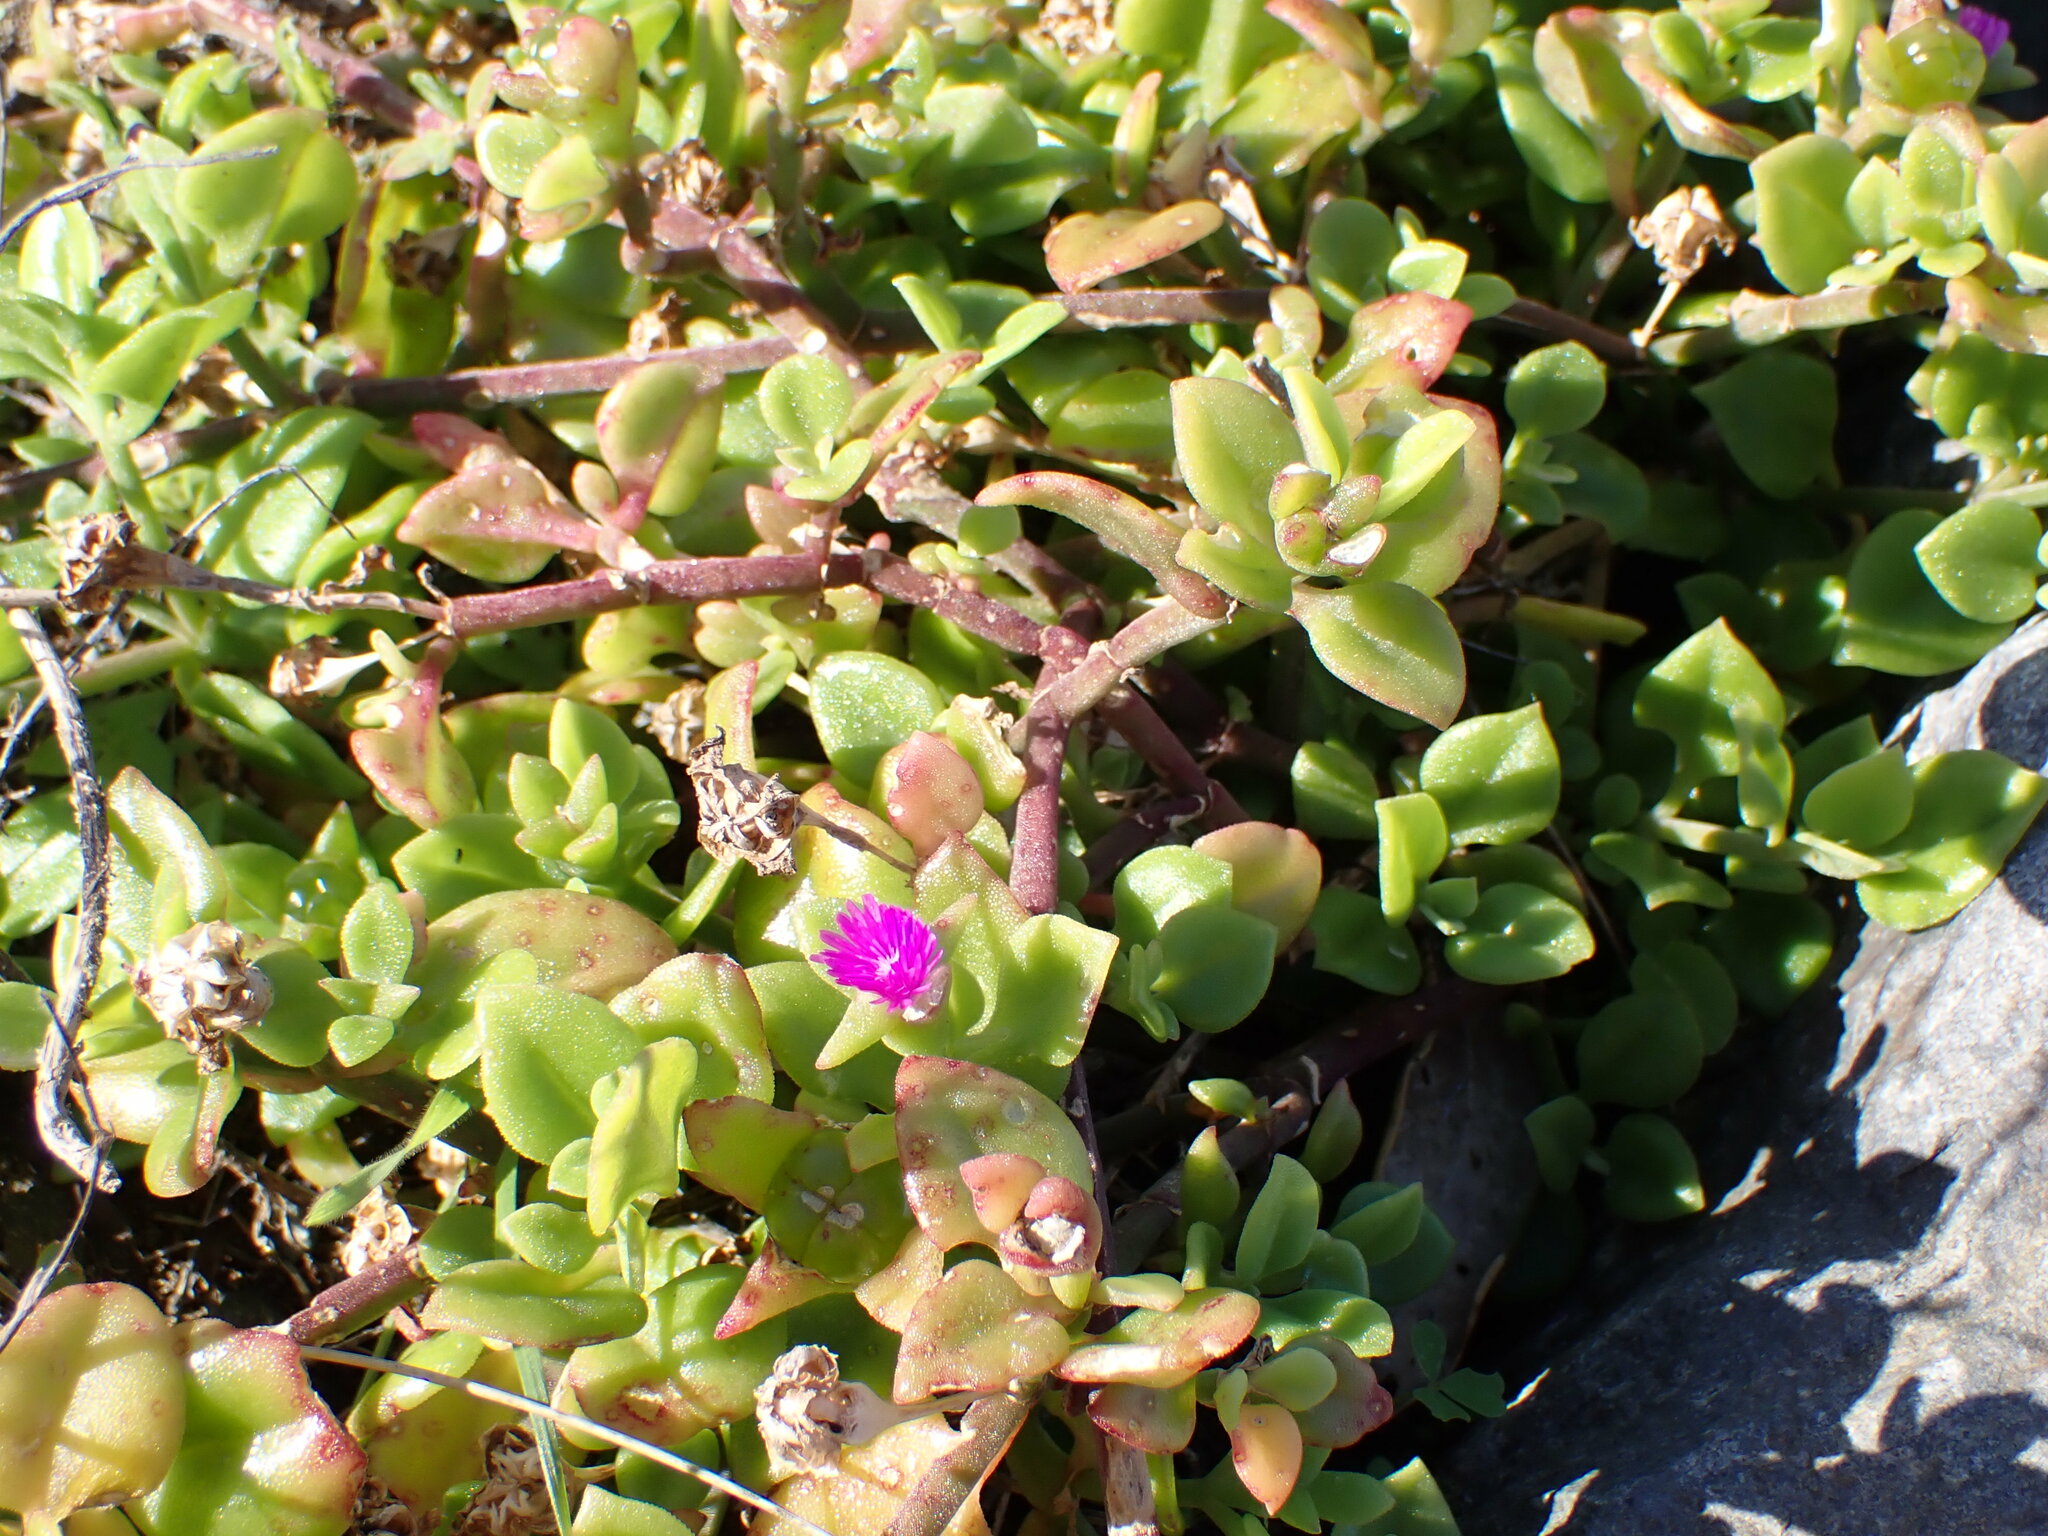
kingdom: Plantae
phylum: Tracheophyta
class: Magnoliopsida
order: Caryophyllales
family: Aizoaceae
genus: Mesembryanthemum
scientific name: Mesembryanthemum cordifolium
